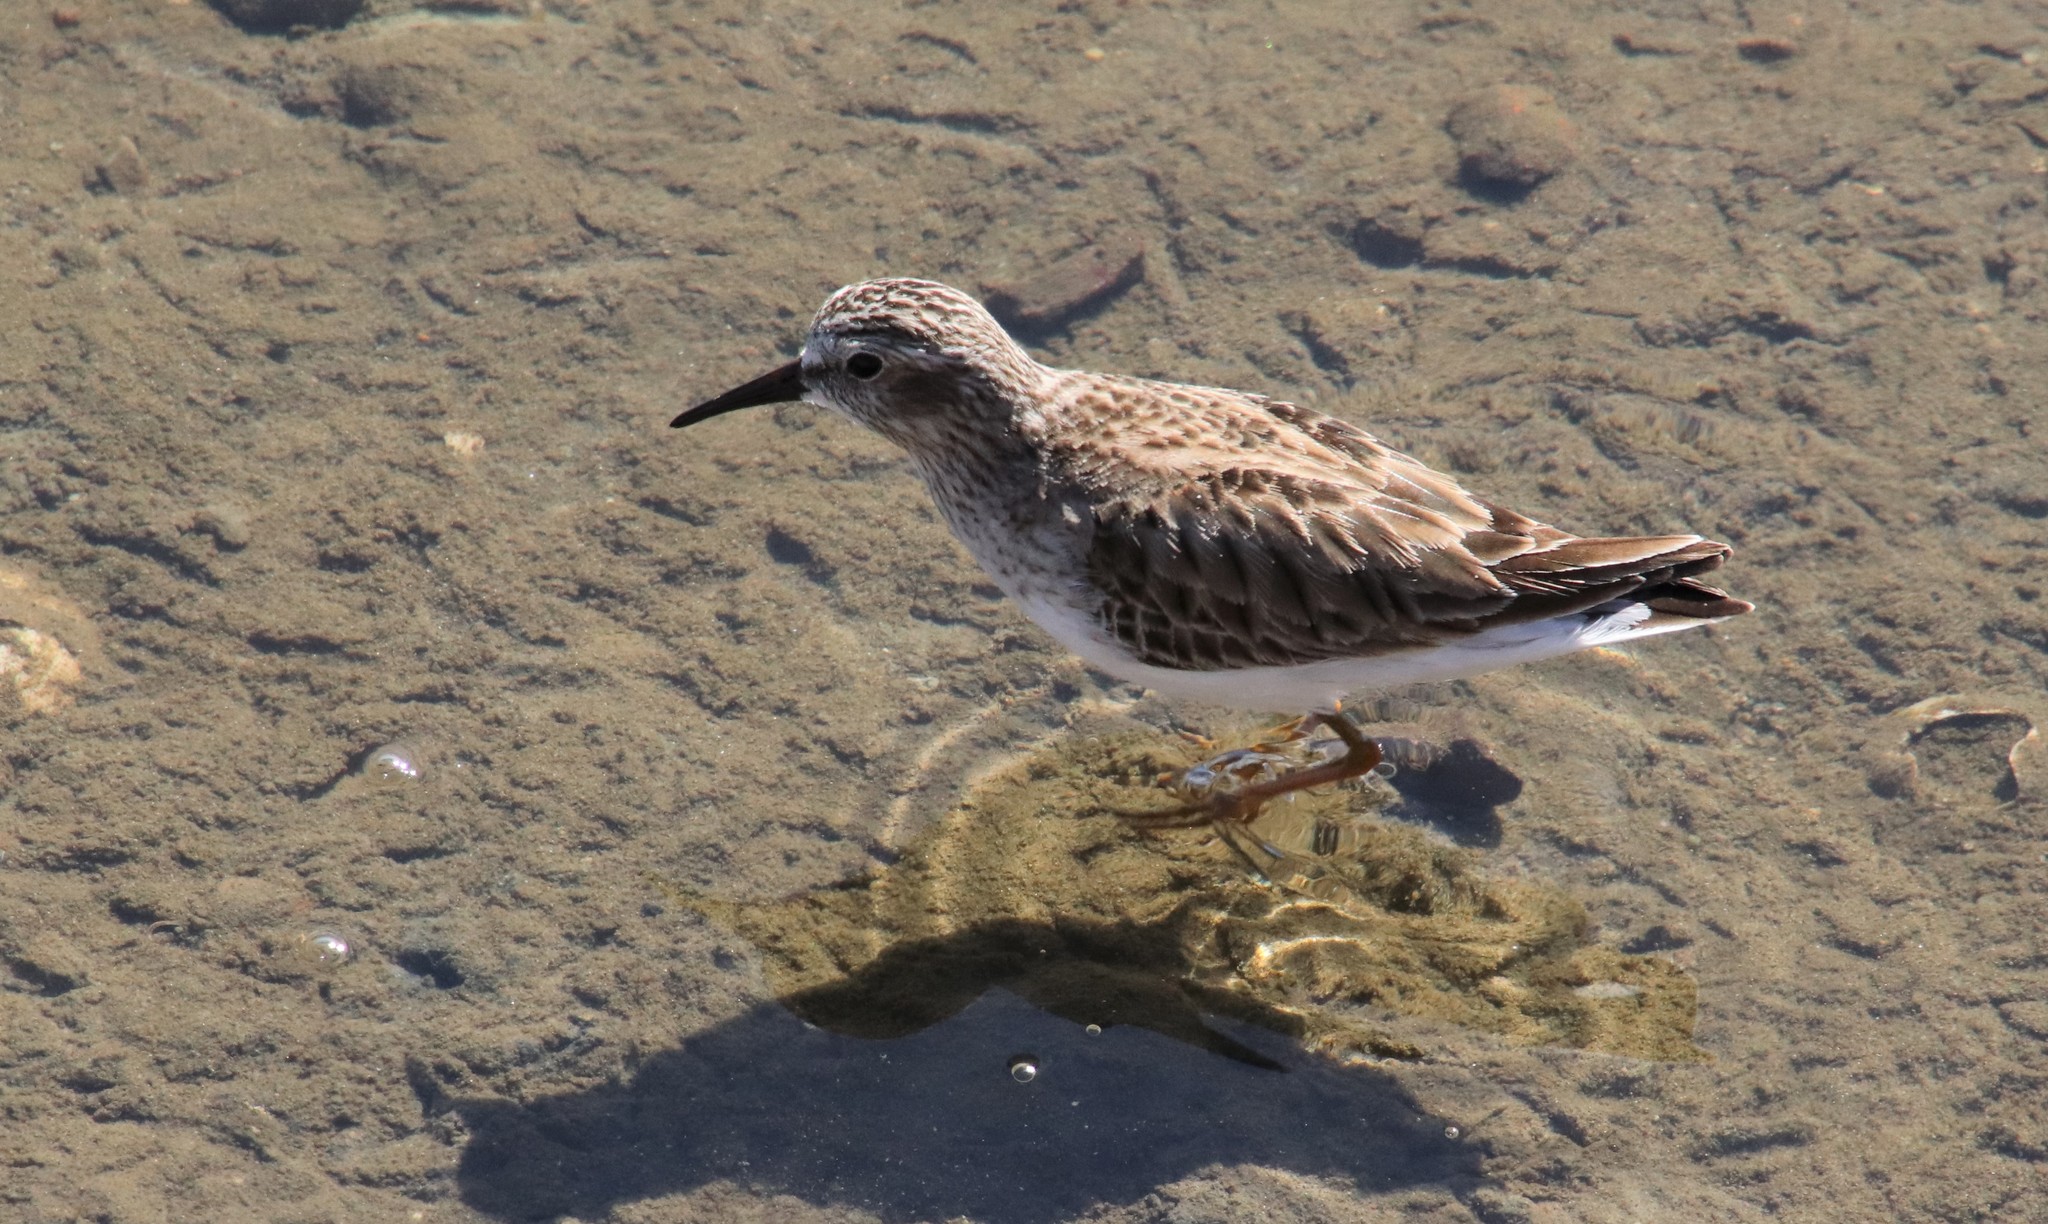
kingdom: Animalia
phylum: Chordata
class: Aves
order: Charadriiformes
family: Scolopacidae
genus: Calidris
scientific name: Calidris minutilla
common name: Least sandpiper
